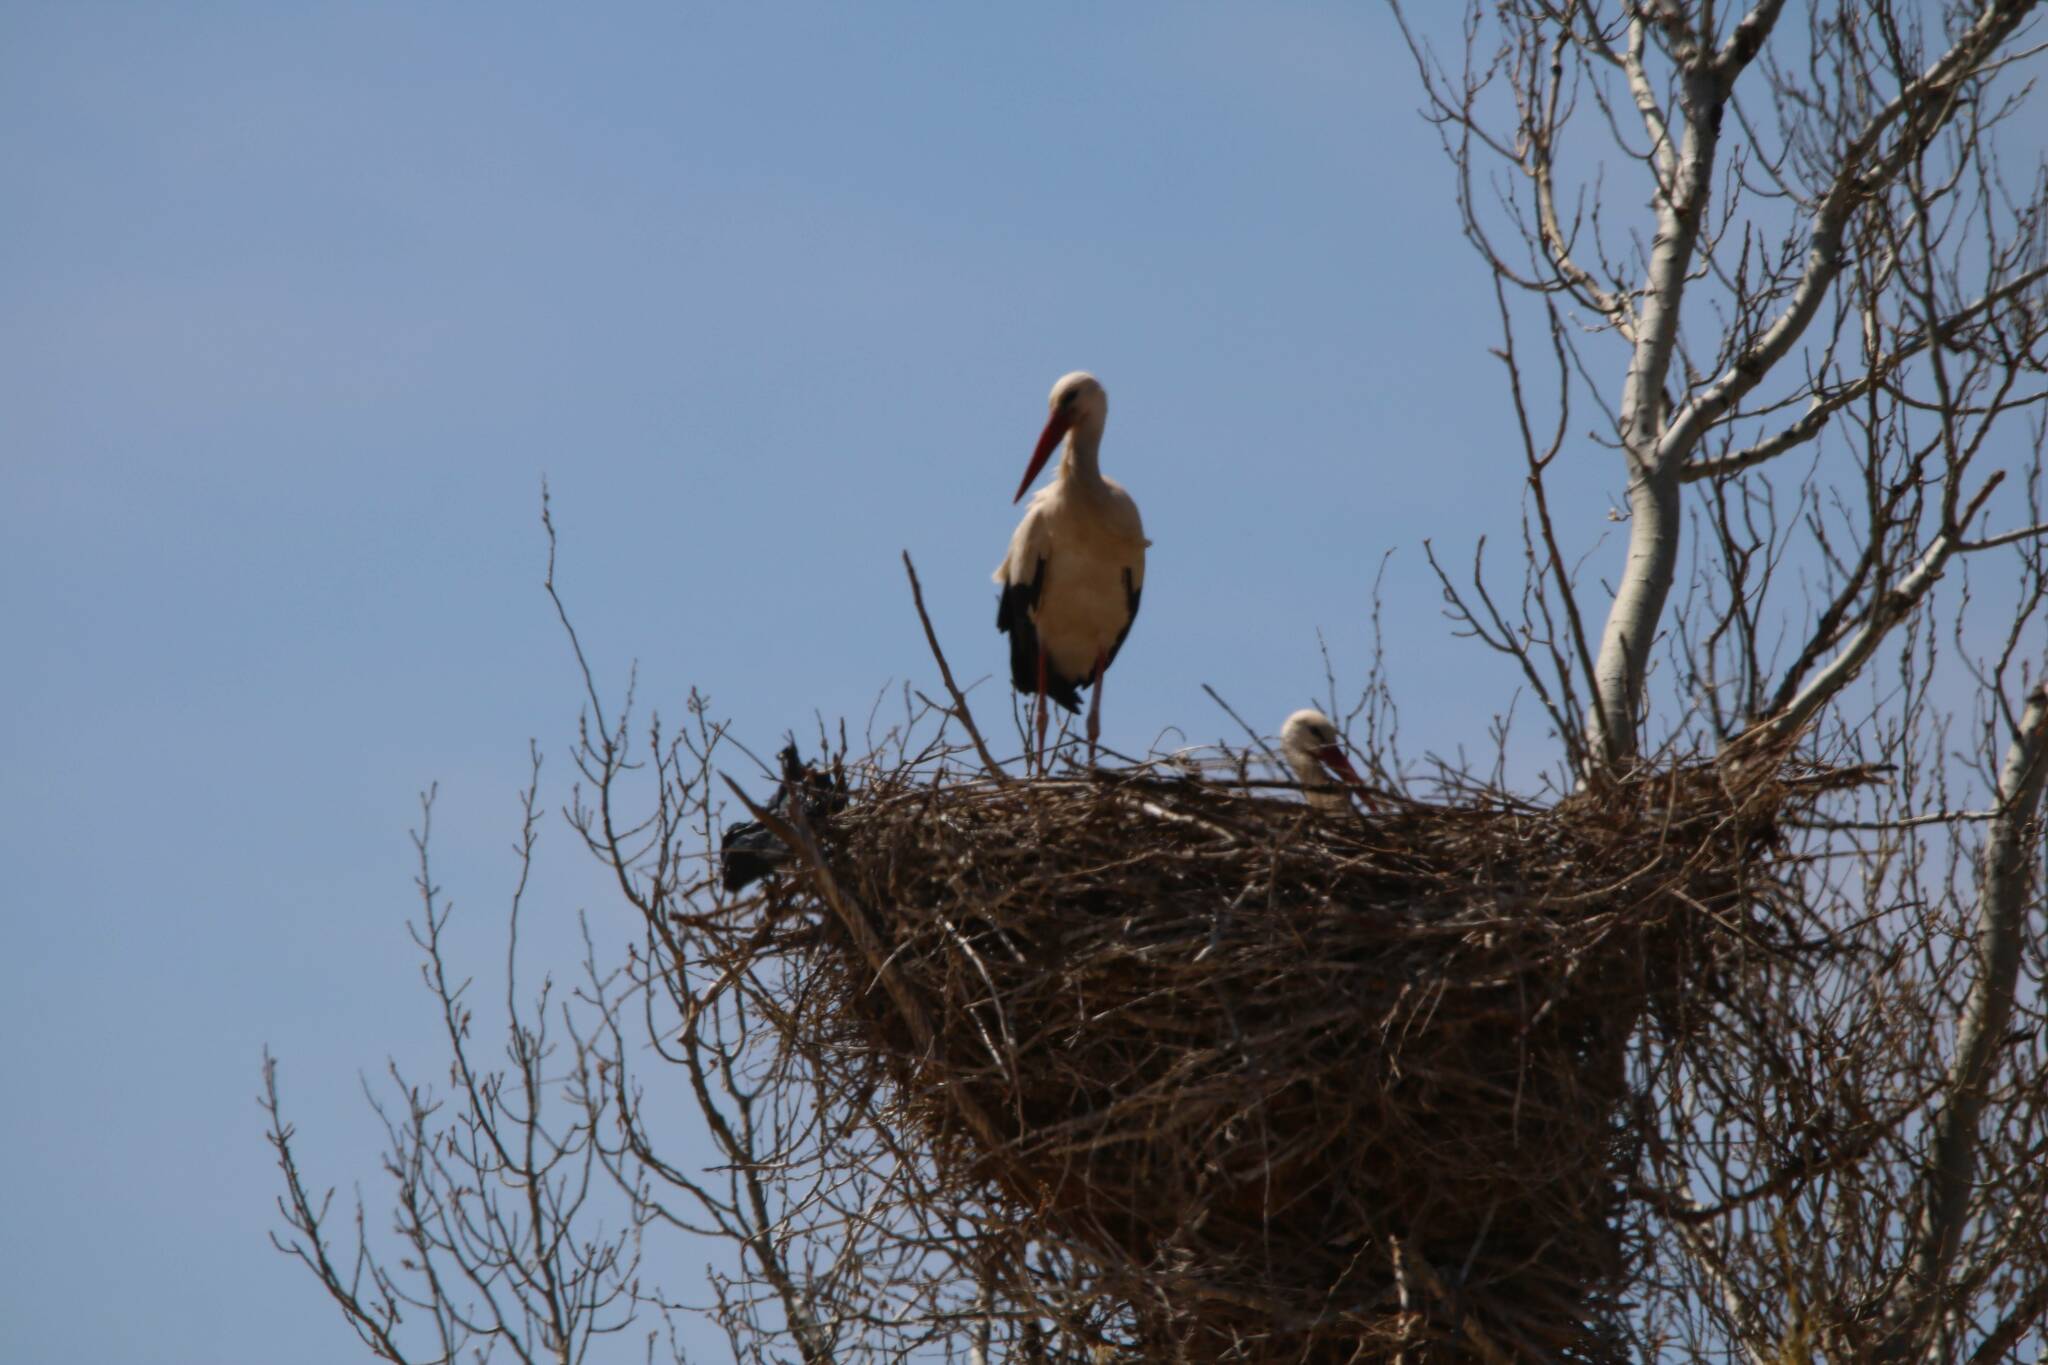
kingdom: Animalia
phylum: Chordata
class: Aves
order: Ciconiiformes
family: Ciconiidae
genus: Ciconia
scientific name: Ciconia ciconia
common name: White stork
